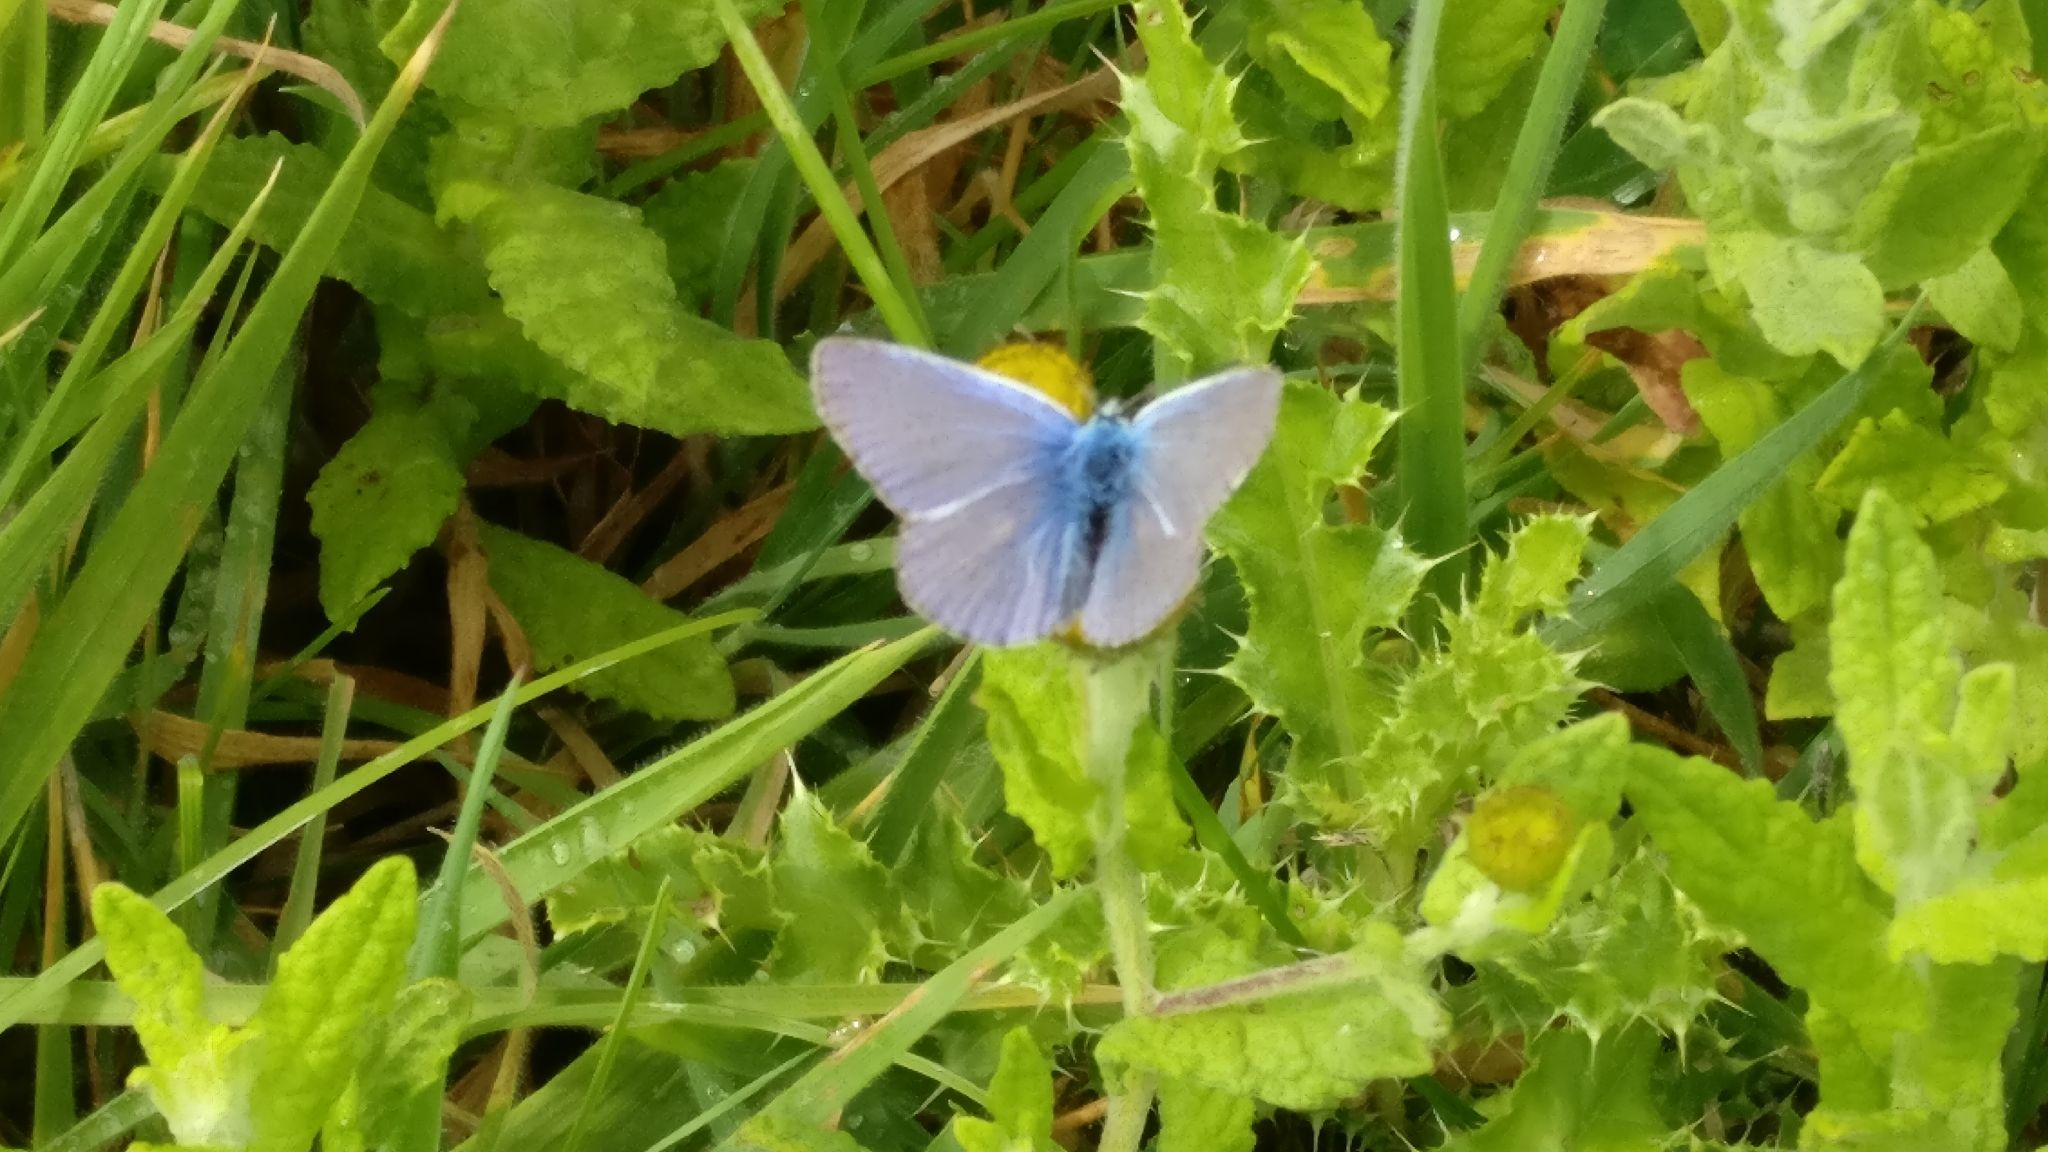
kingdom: Animalia
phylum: Arthropoda
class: Insecta
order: Lepidoptera
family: Lycaenidae
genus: Polyommatus
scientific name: Polyommatus icarus
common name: Common blue
